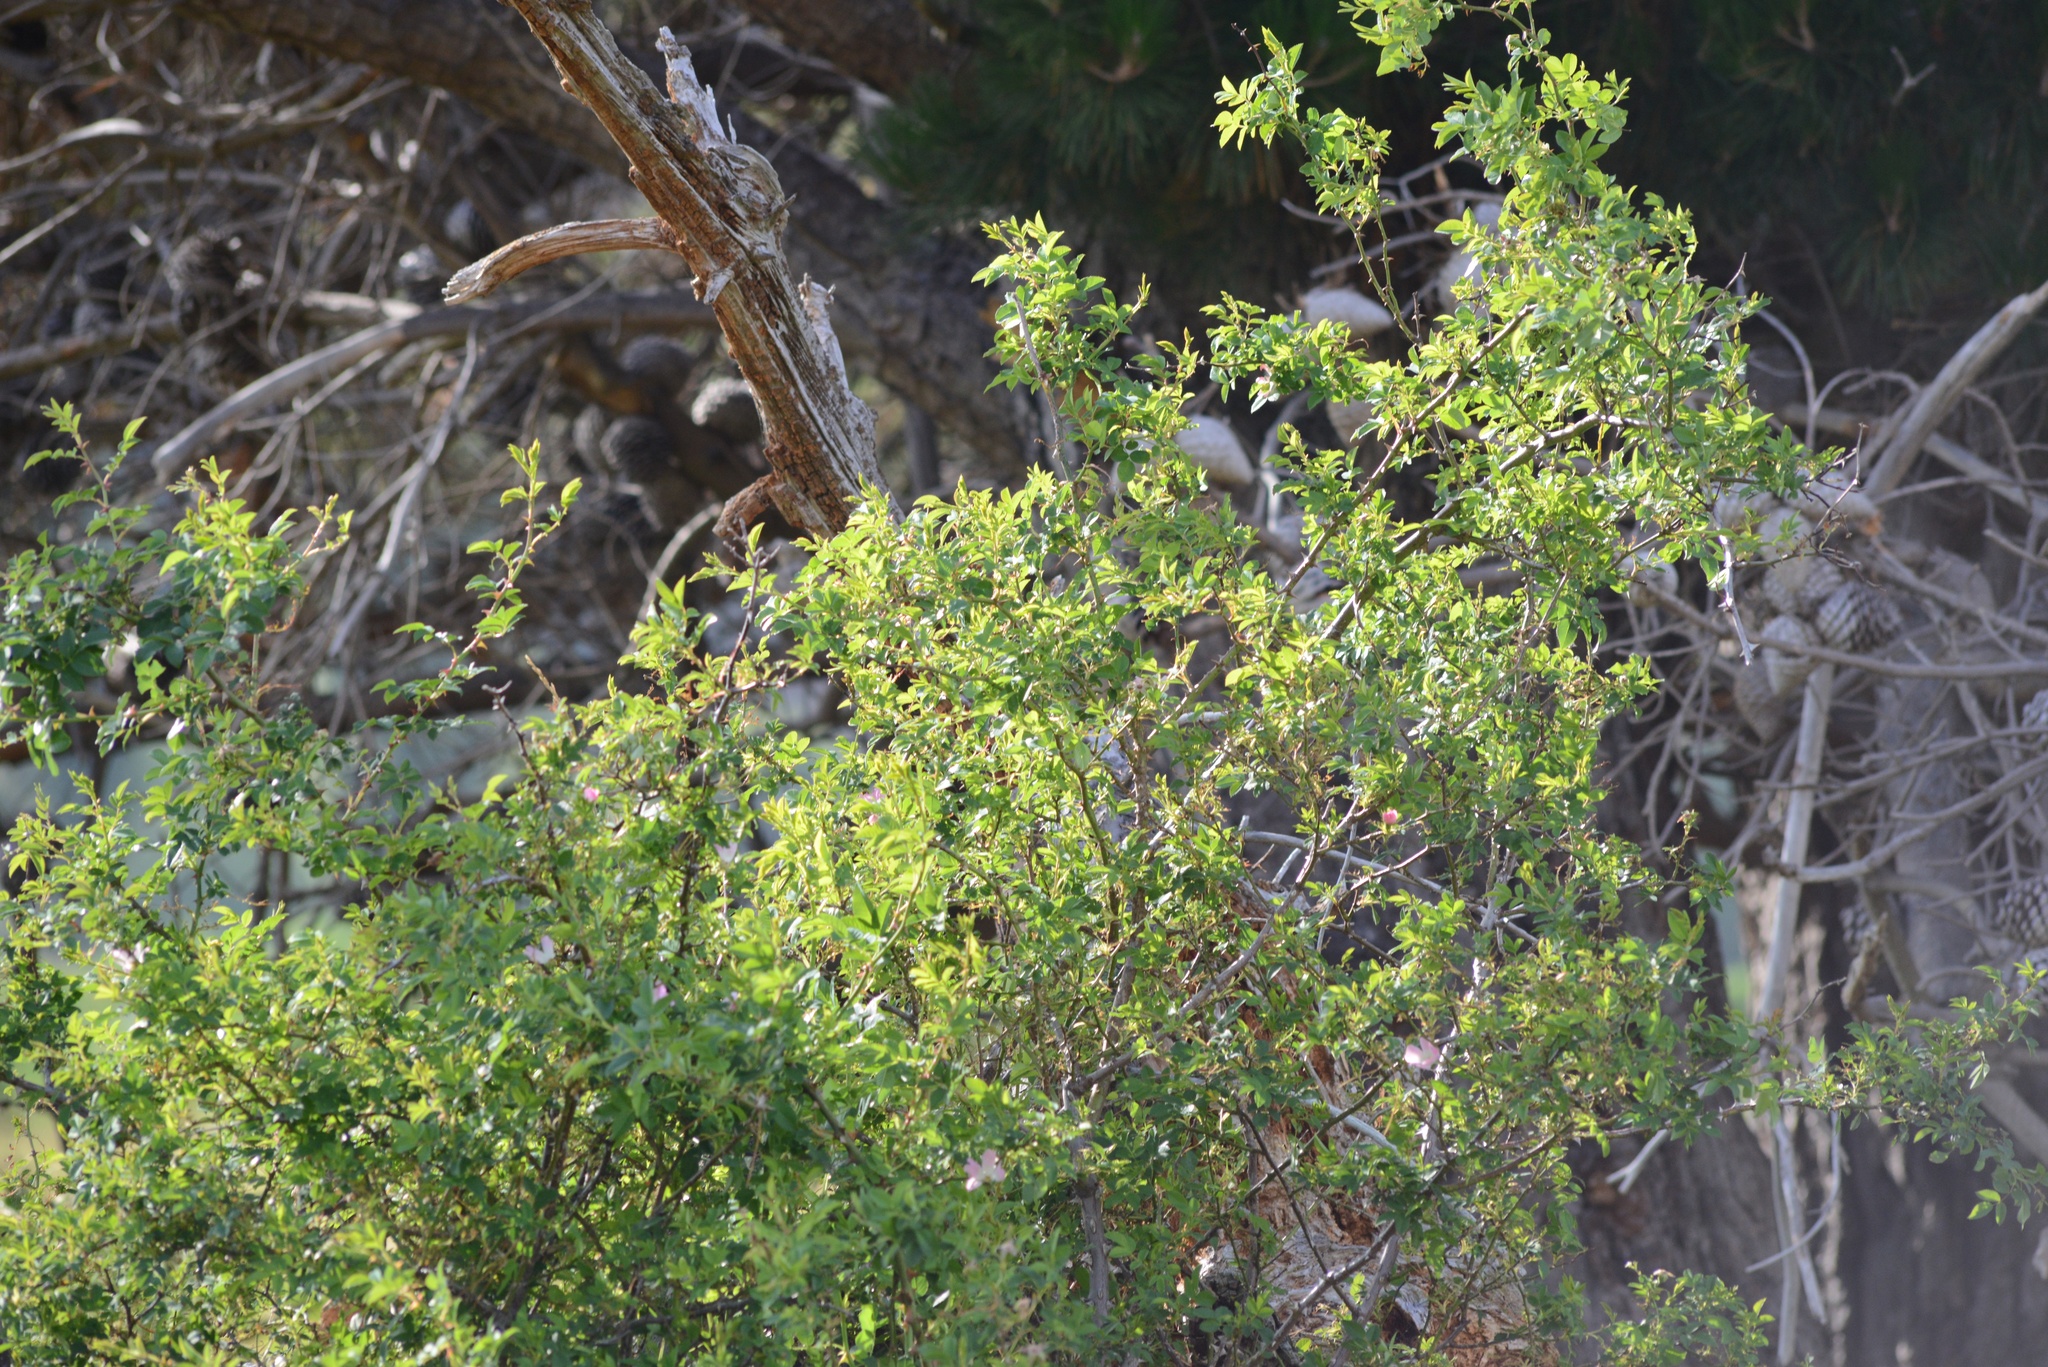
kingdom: Plantae
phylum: Tracheophyta
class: Magnoliopsida
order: Solanales
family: Solanaceae
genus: Lycium
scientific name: Lycium ferocissimum
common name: African boxthorn
